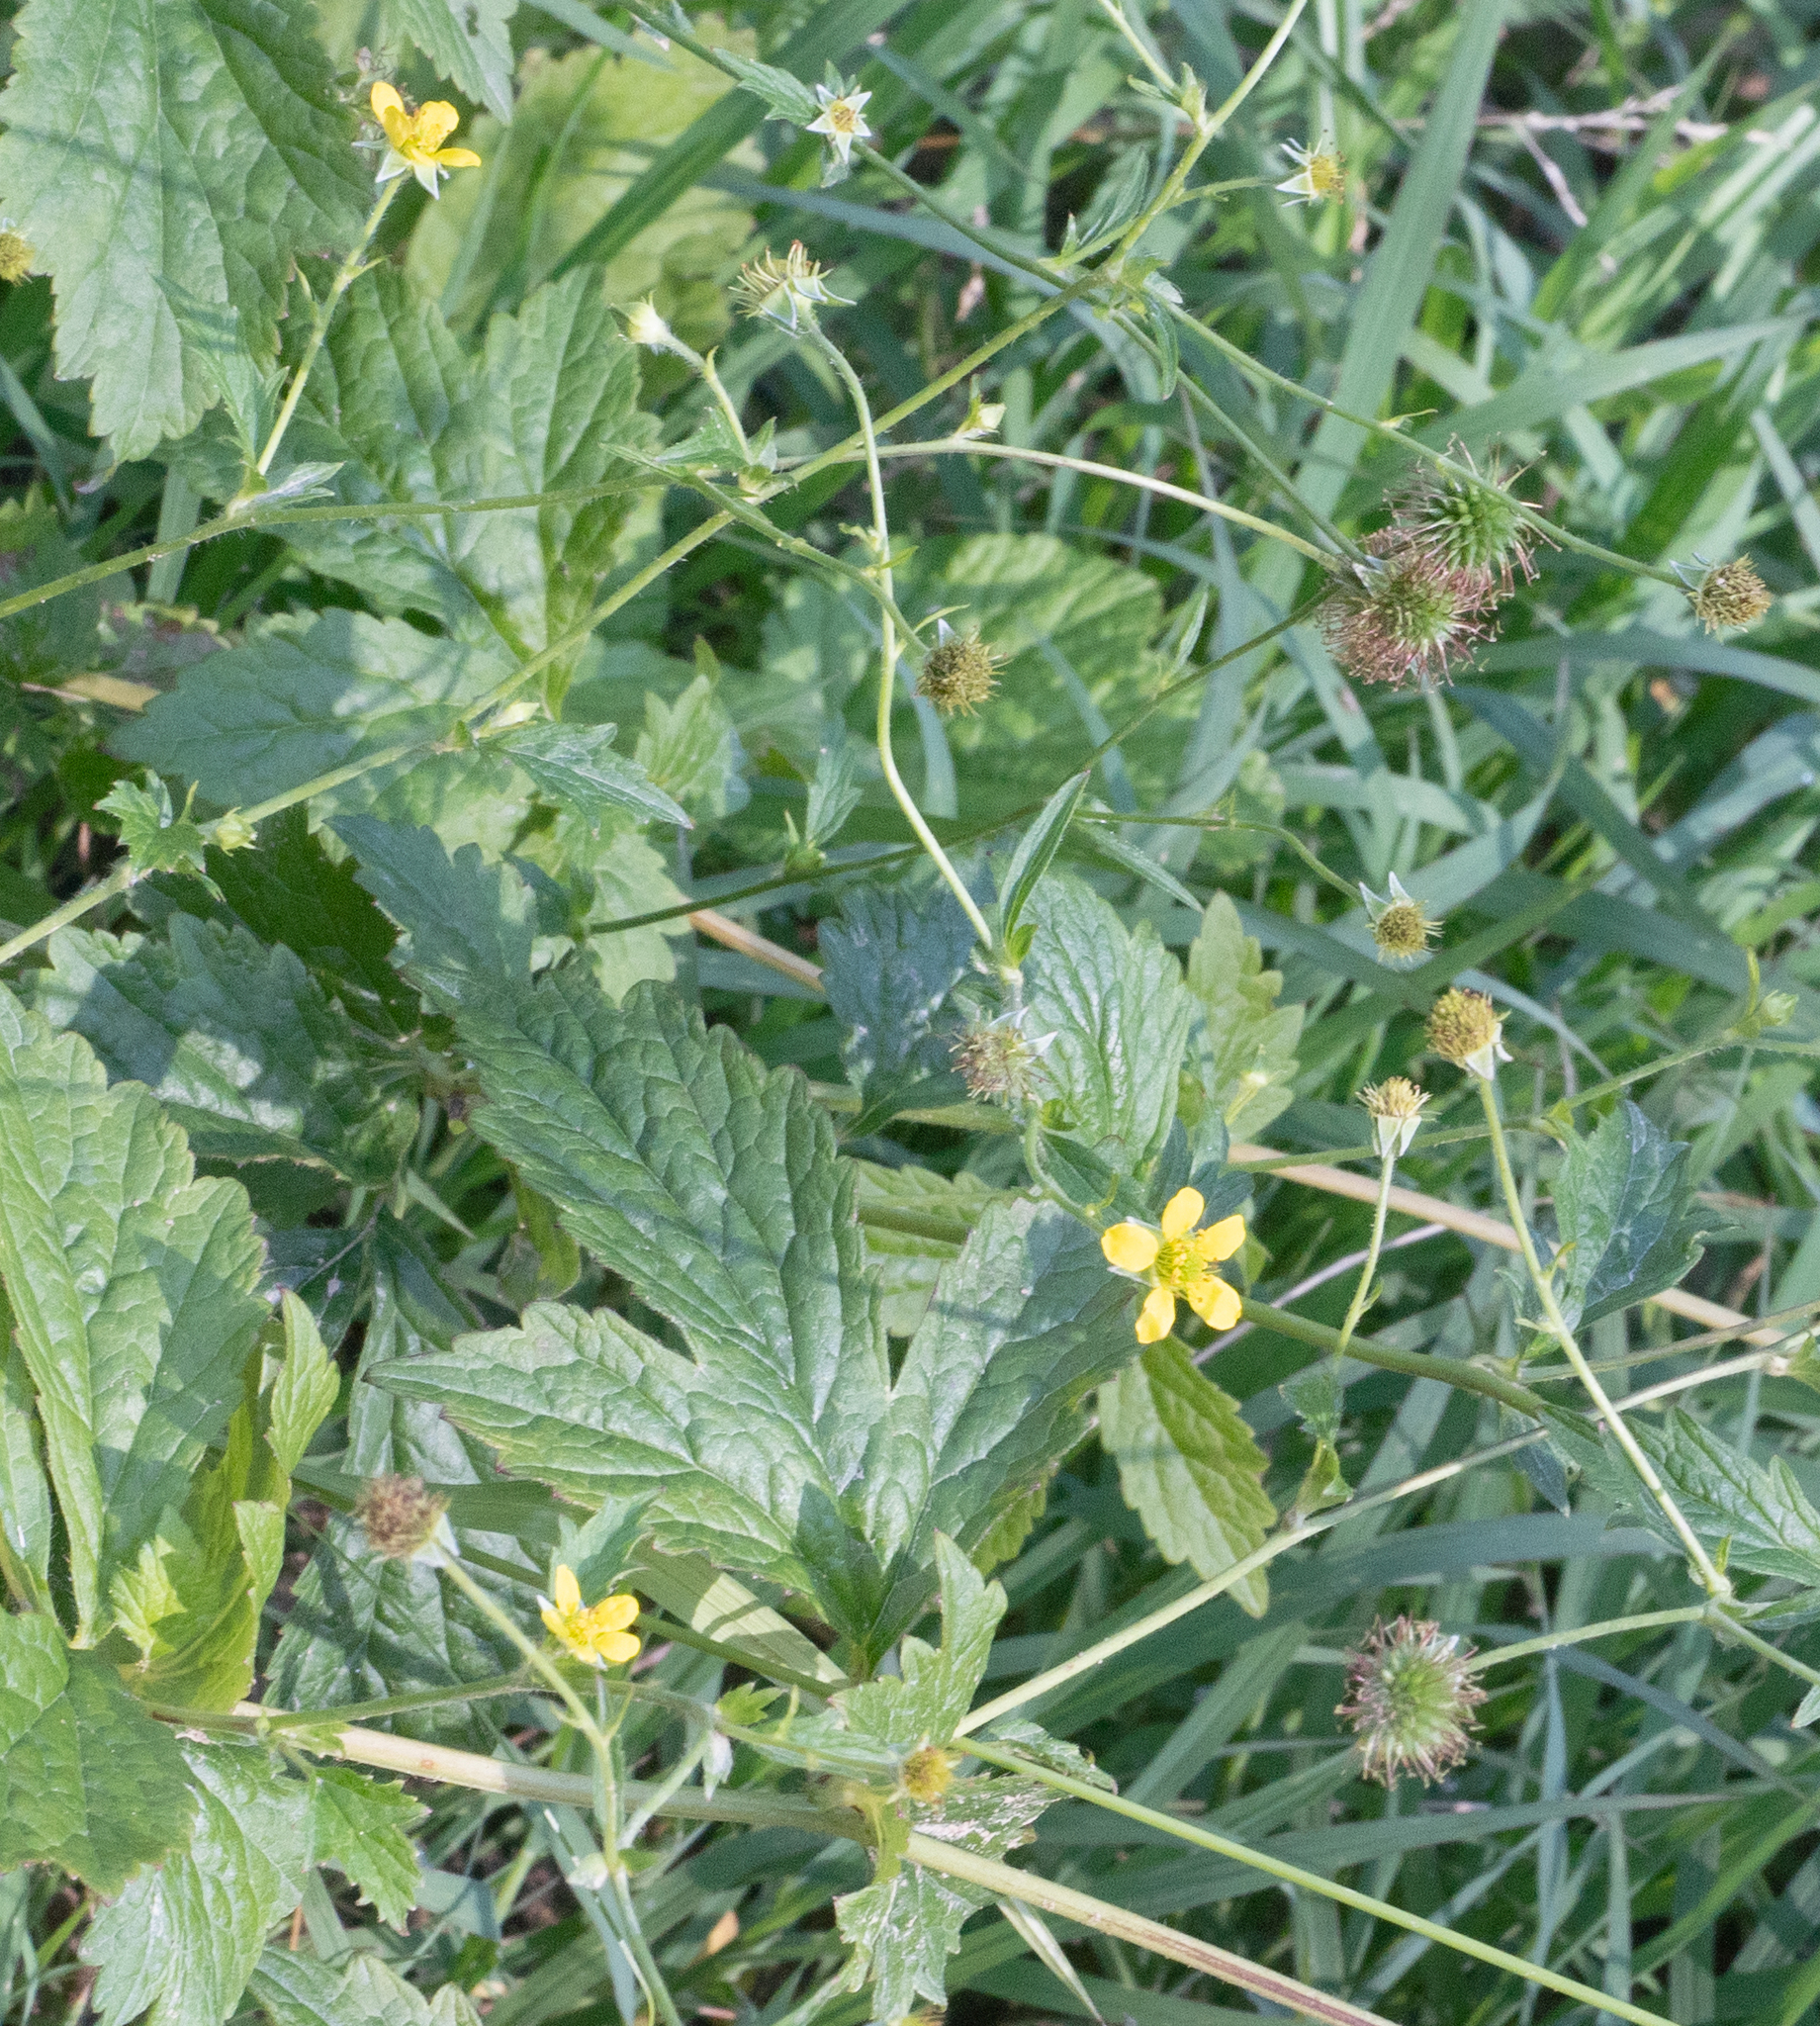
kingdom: Plantae
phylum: Tracheophyta
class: Magnoliopsida
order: Rosales
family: Rosaceae
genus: Geum
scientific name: Geum urbanum
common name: Wood avens
